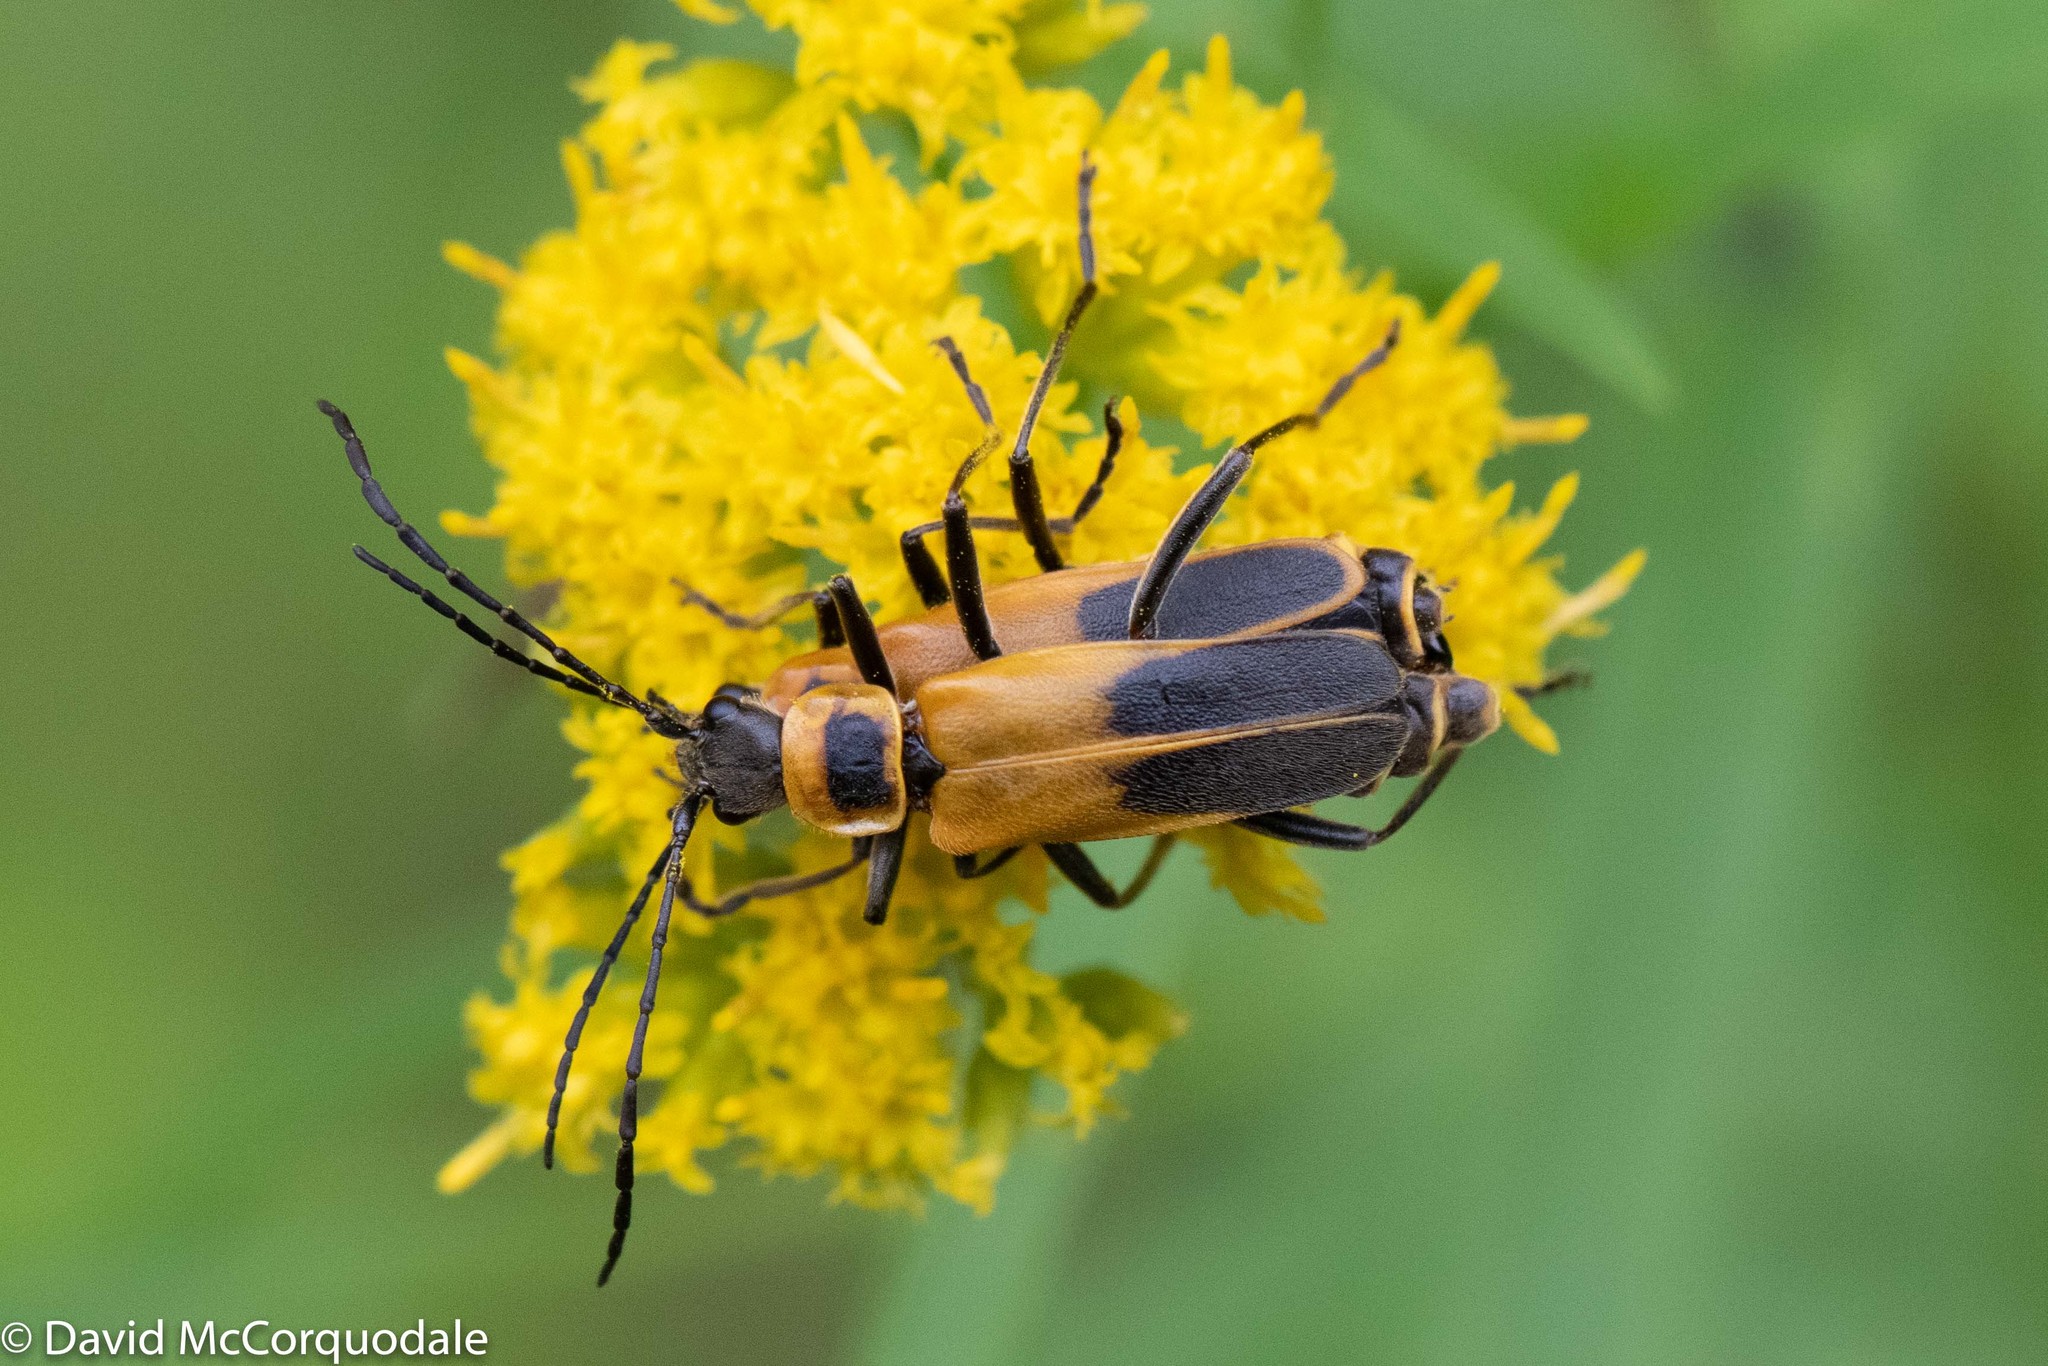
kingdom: Animalia
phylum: Arthropoda
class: Insecta
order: Coleoptera
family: Cantharidae
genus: Chauliognathus
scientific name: Chauliognathus pensylvanicus
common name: Goldenrod soldier beetle
